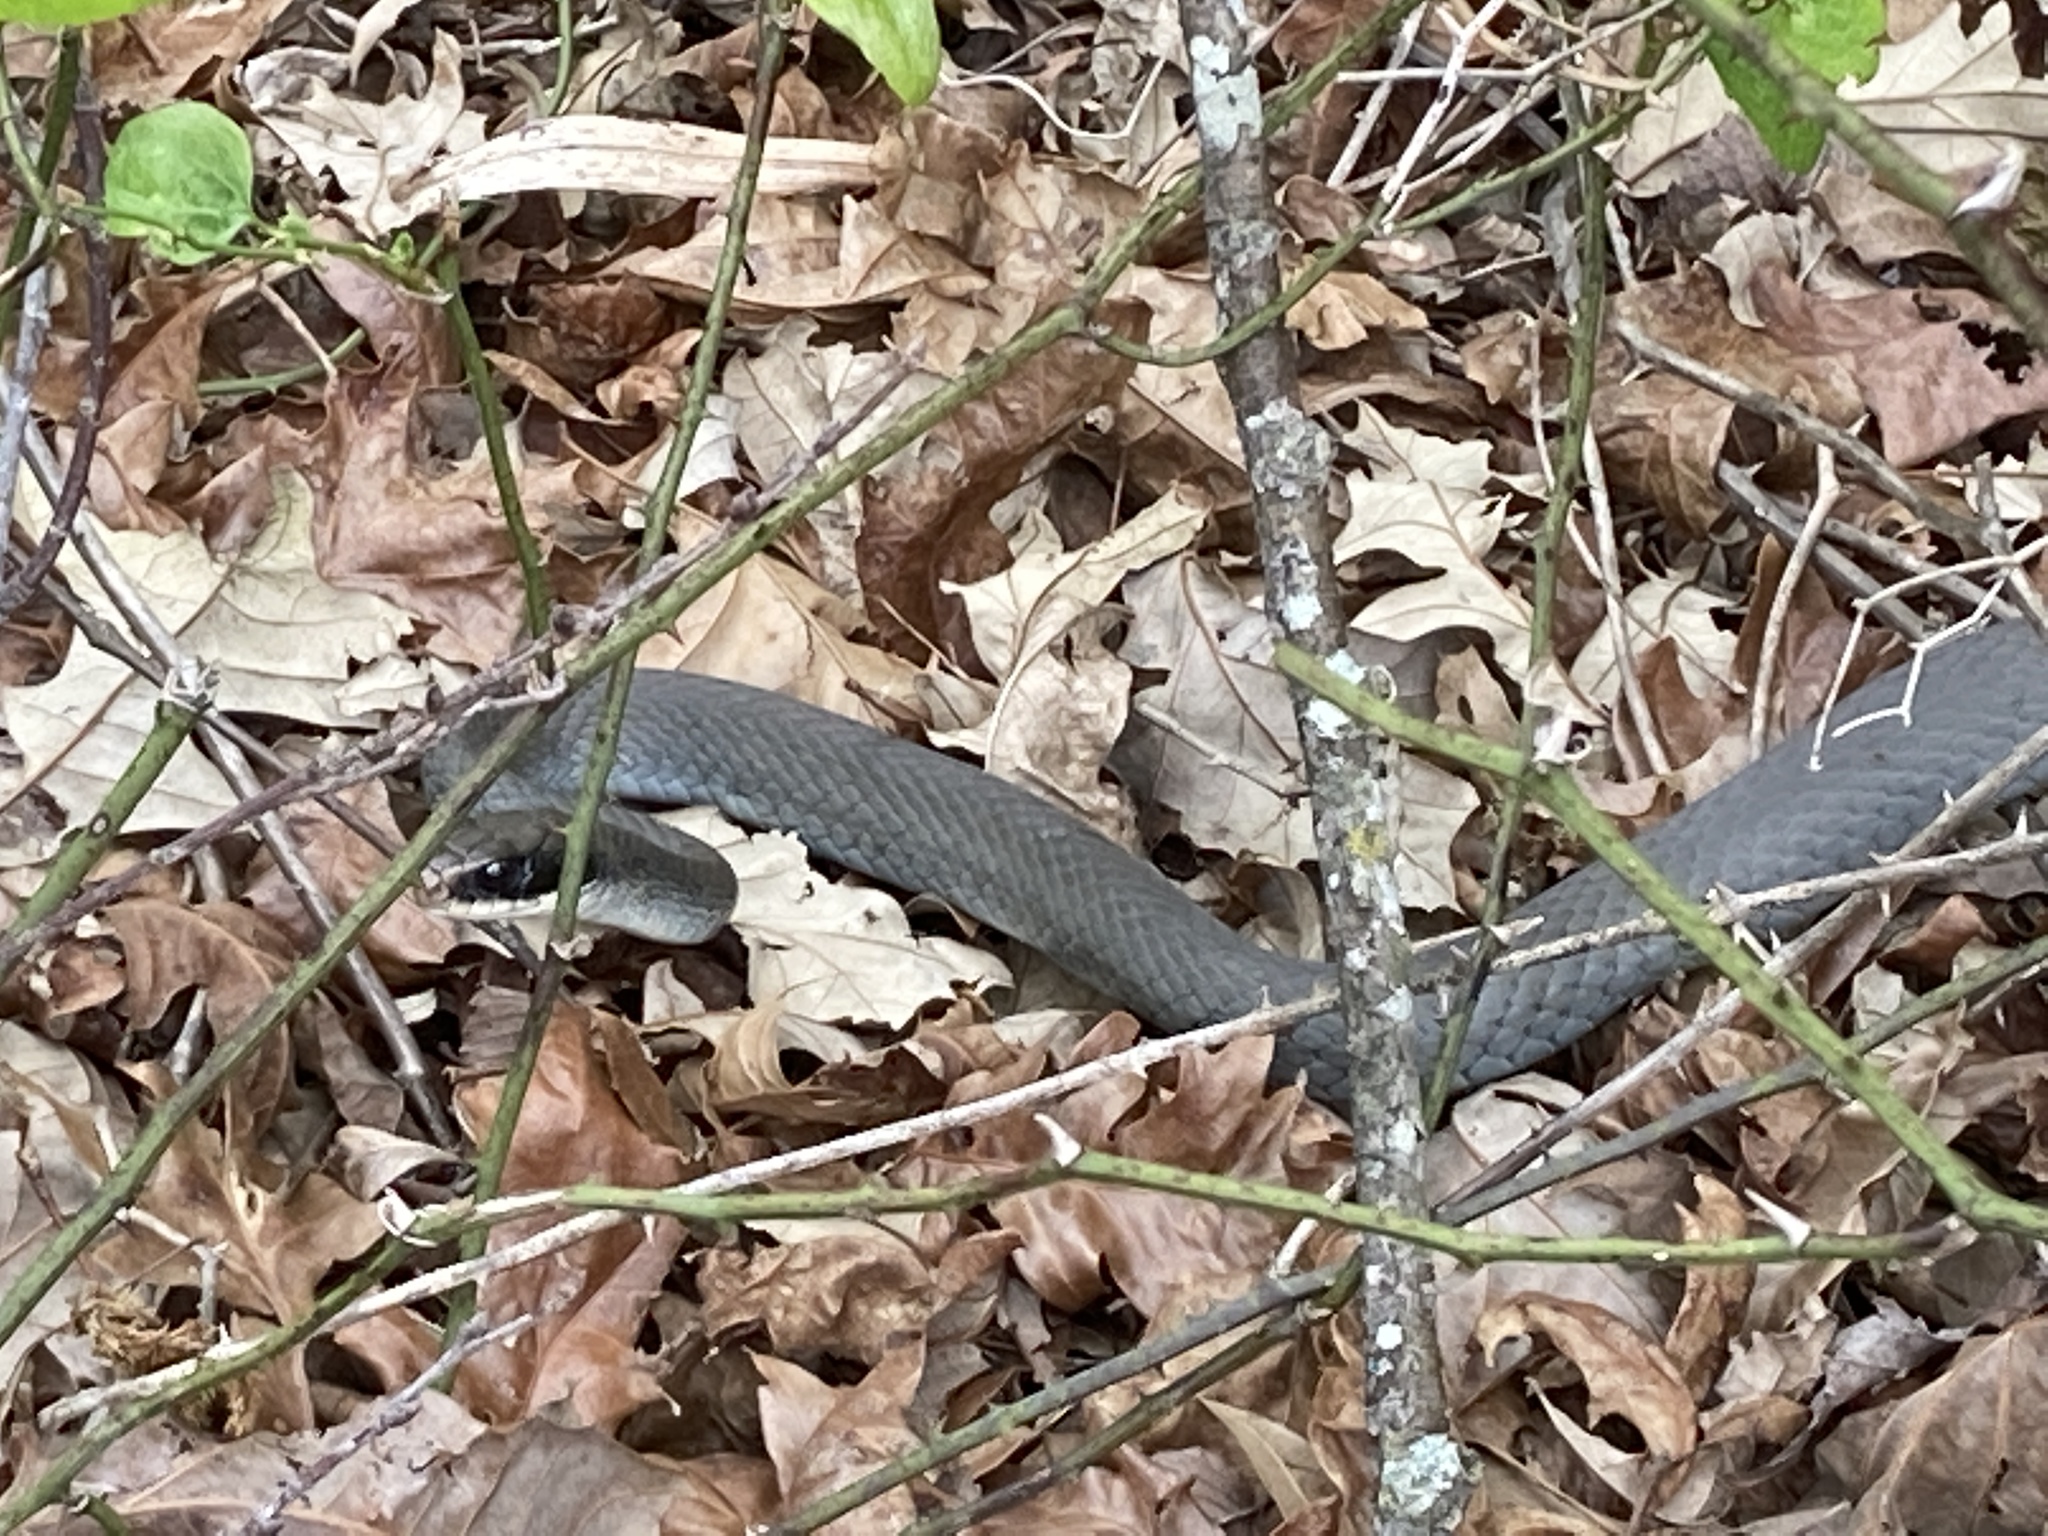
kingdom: Animalia
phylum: Chordata
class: Squamata
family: Colubridae
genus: Coluber
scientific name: Coluber constrictor
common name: Eastern racer
